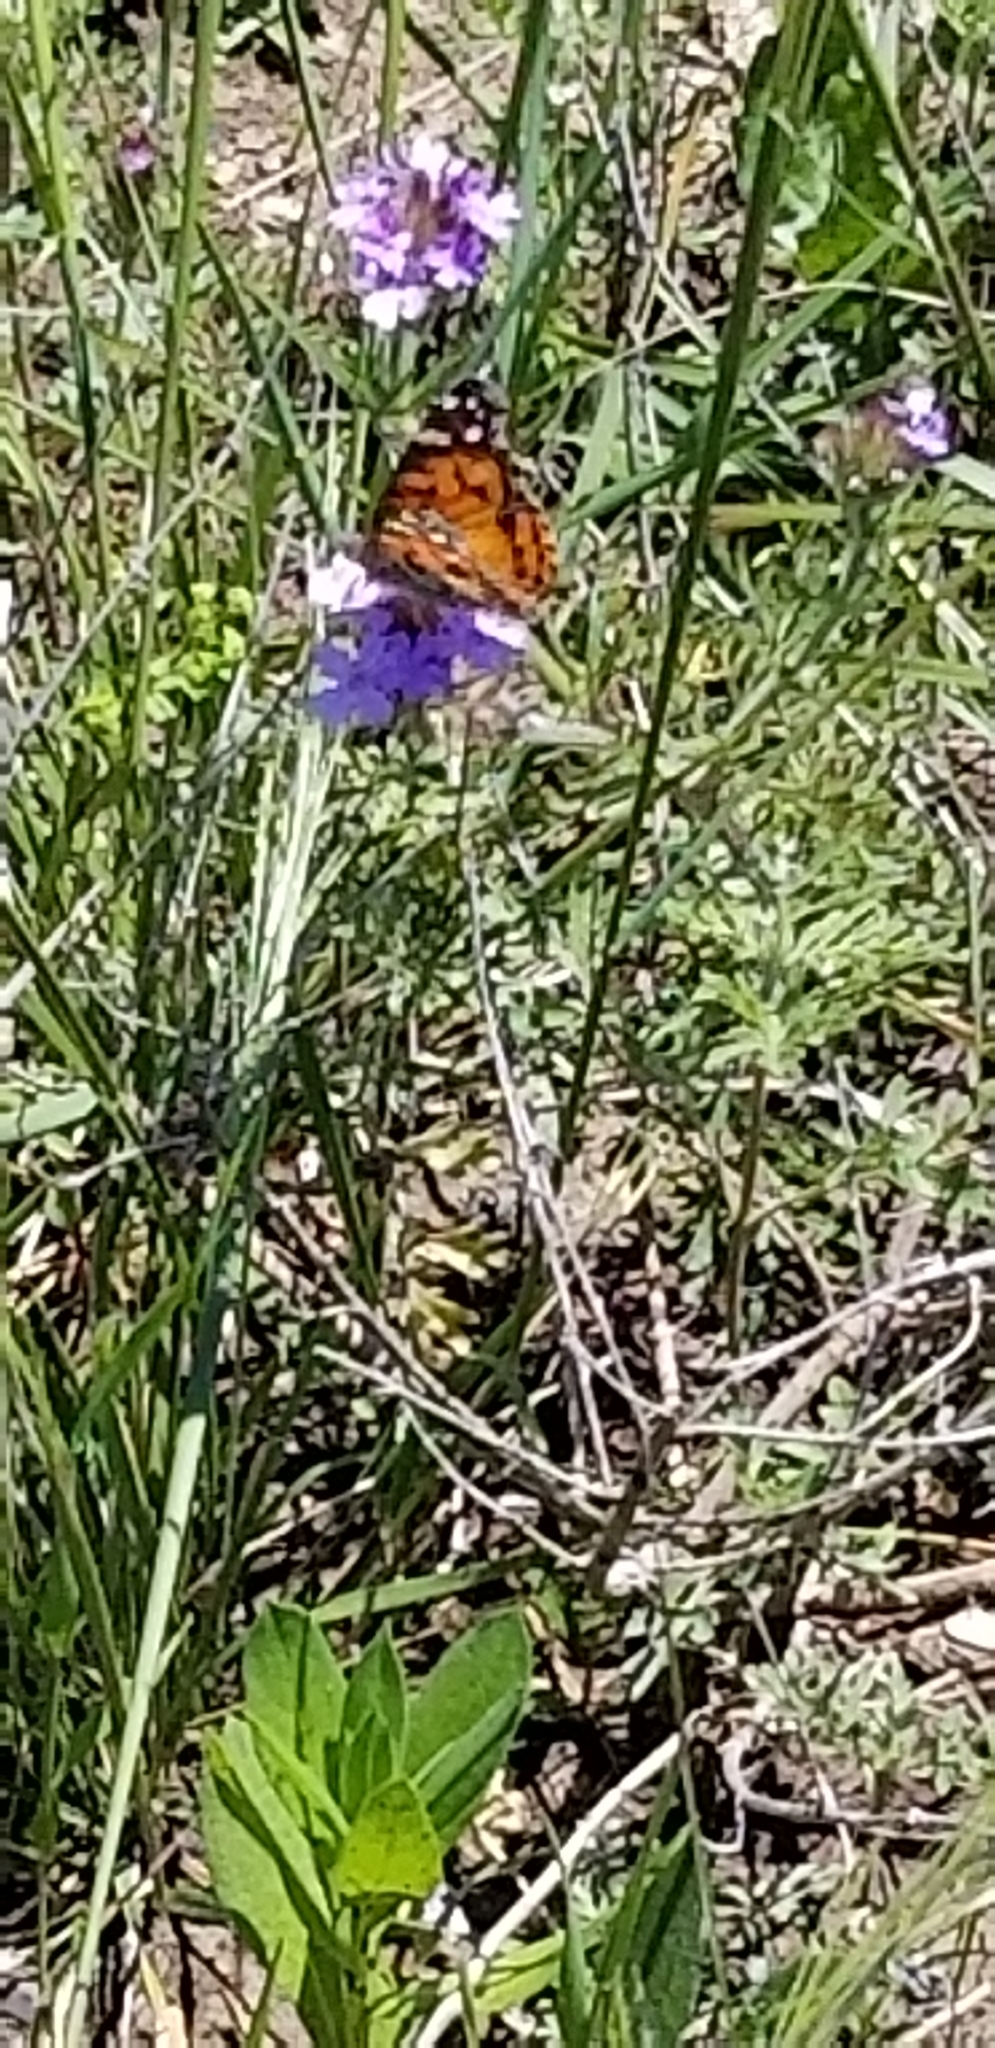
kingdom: Animalia
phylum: Arthropoda
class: Insecta
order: Lepidoptera
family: Nymphalidae
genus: Vanessa
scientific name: Vanessa virginiensis
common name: American lady
